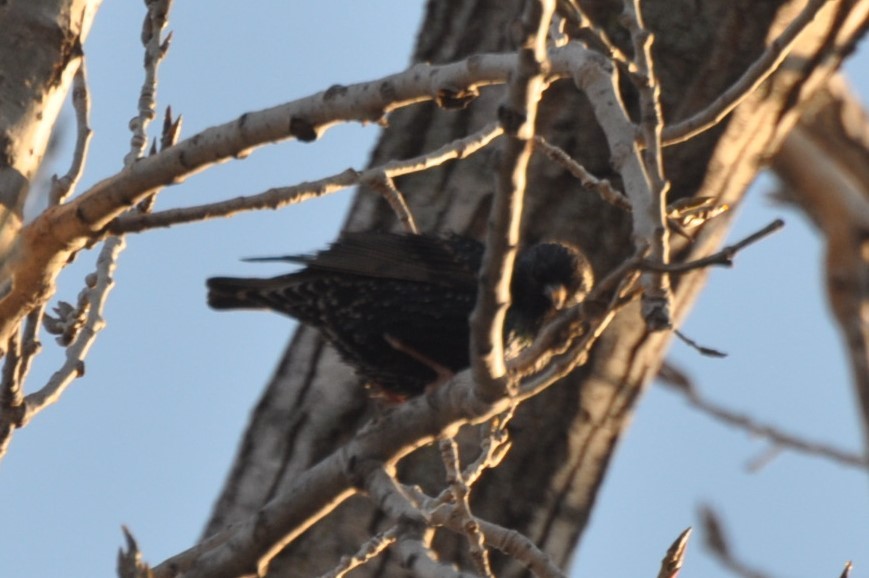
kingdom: Animalia
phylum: Chordata
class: Aves
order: Passeriformes
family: Sturnidae
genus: Sturnus
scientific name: Sturnus vulgaris
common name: Common starling
